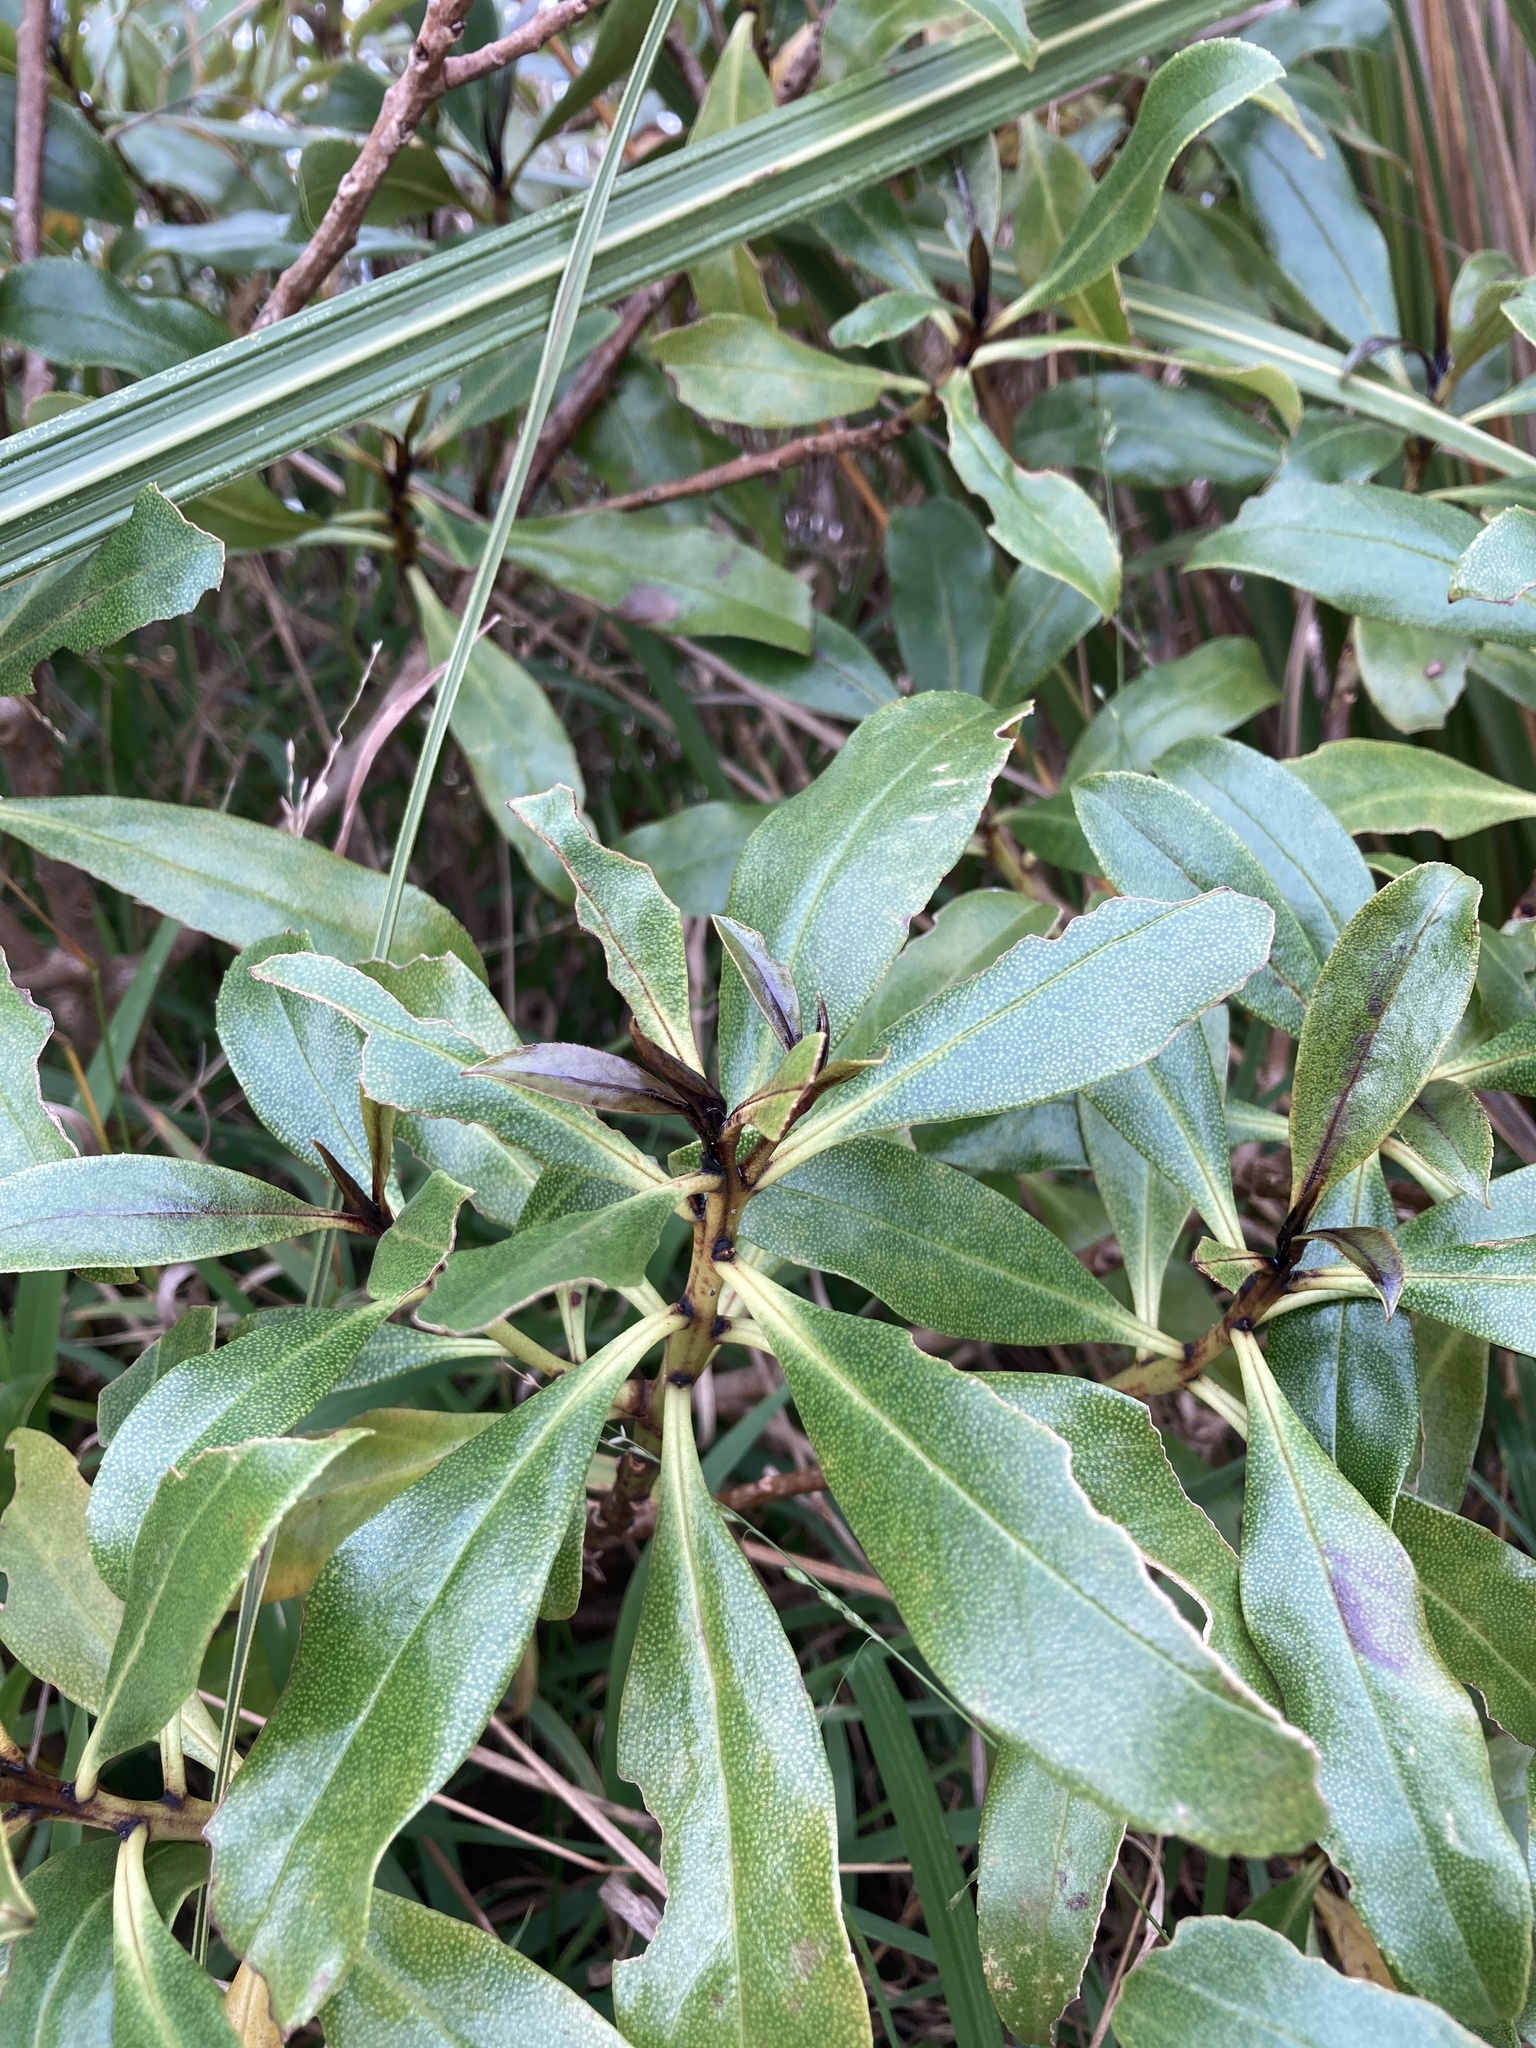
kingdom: Plantae
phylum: Tracheophyta
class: Magnoliopsida
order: Lamiales
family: Scrophulariaceae
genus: Myoporum
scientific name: Myoporum laetum
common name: Ngaio tree
